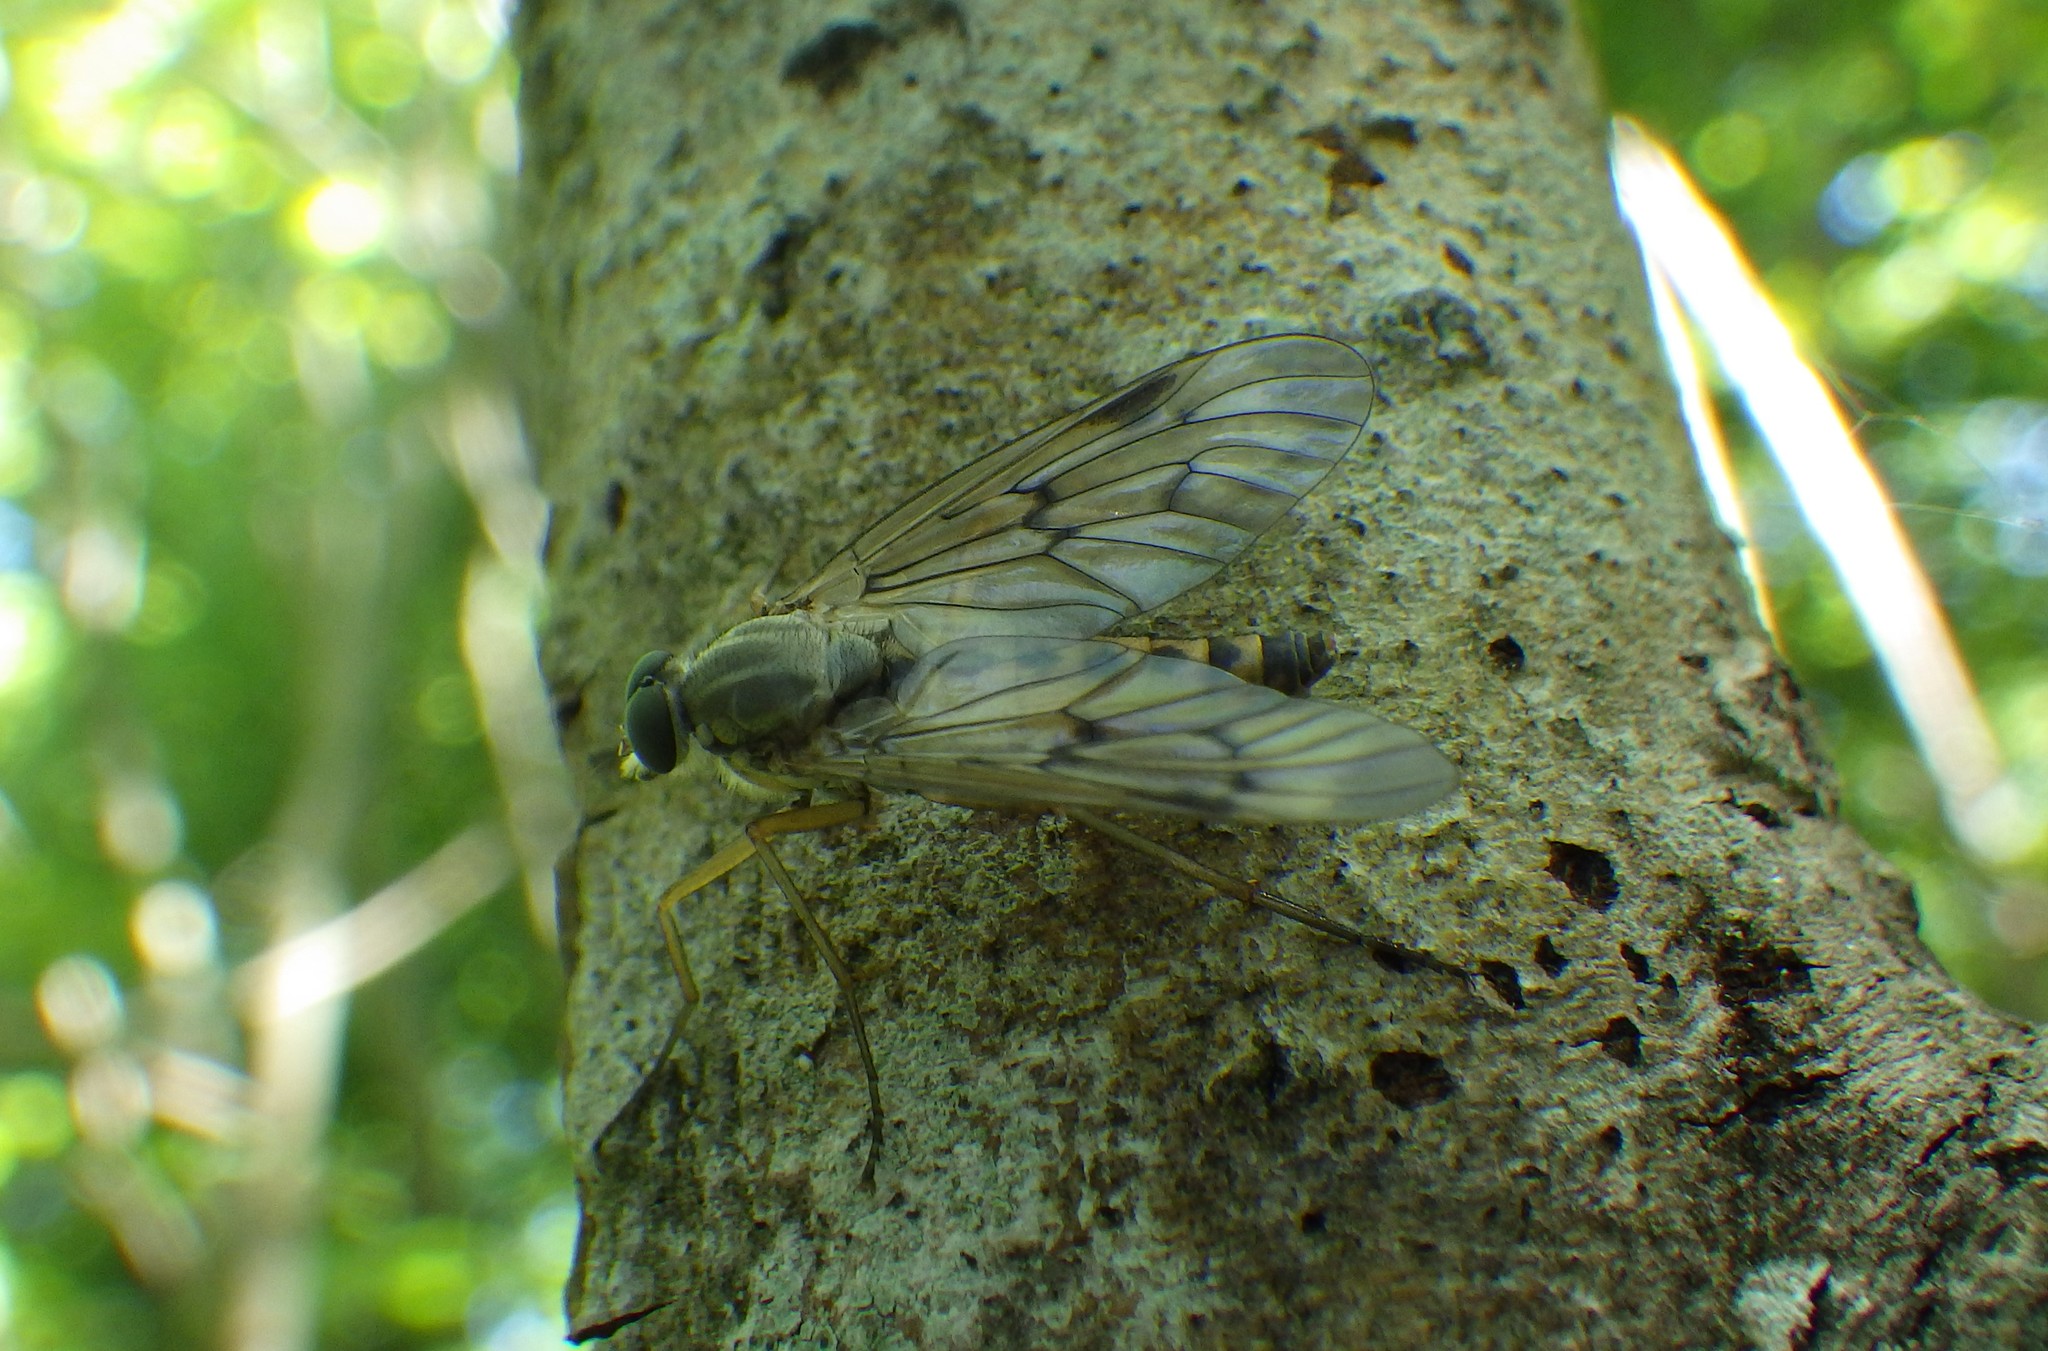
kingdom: Animalia
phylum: Arthropoda
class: Insecta
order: Diptera
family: Rhagionidae
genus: Rhagio
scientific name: Rhagio scolopacea
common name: Downlooker snipefly
